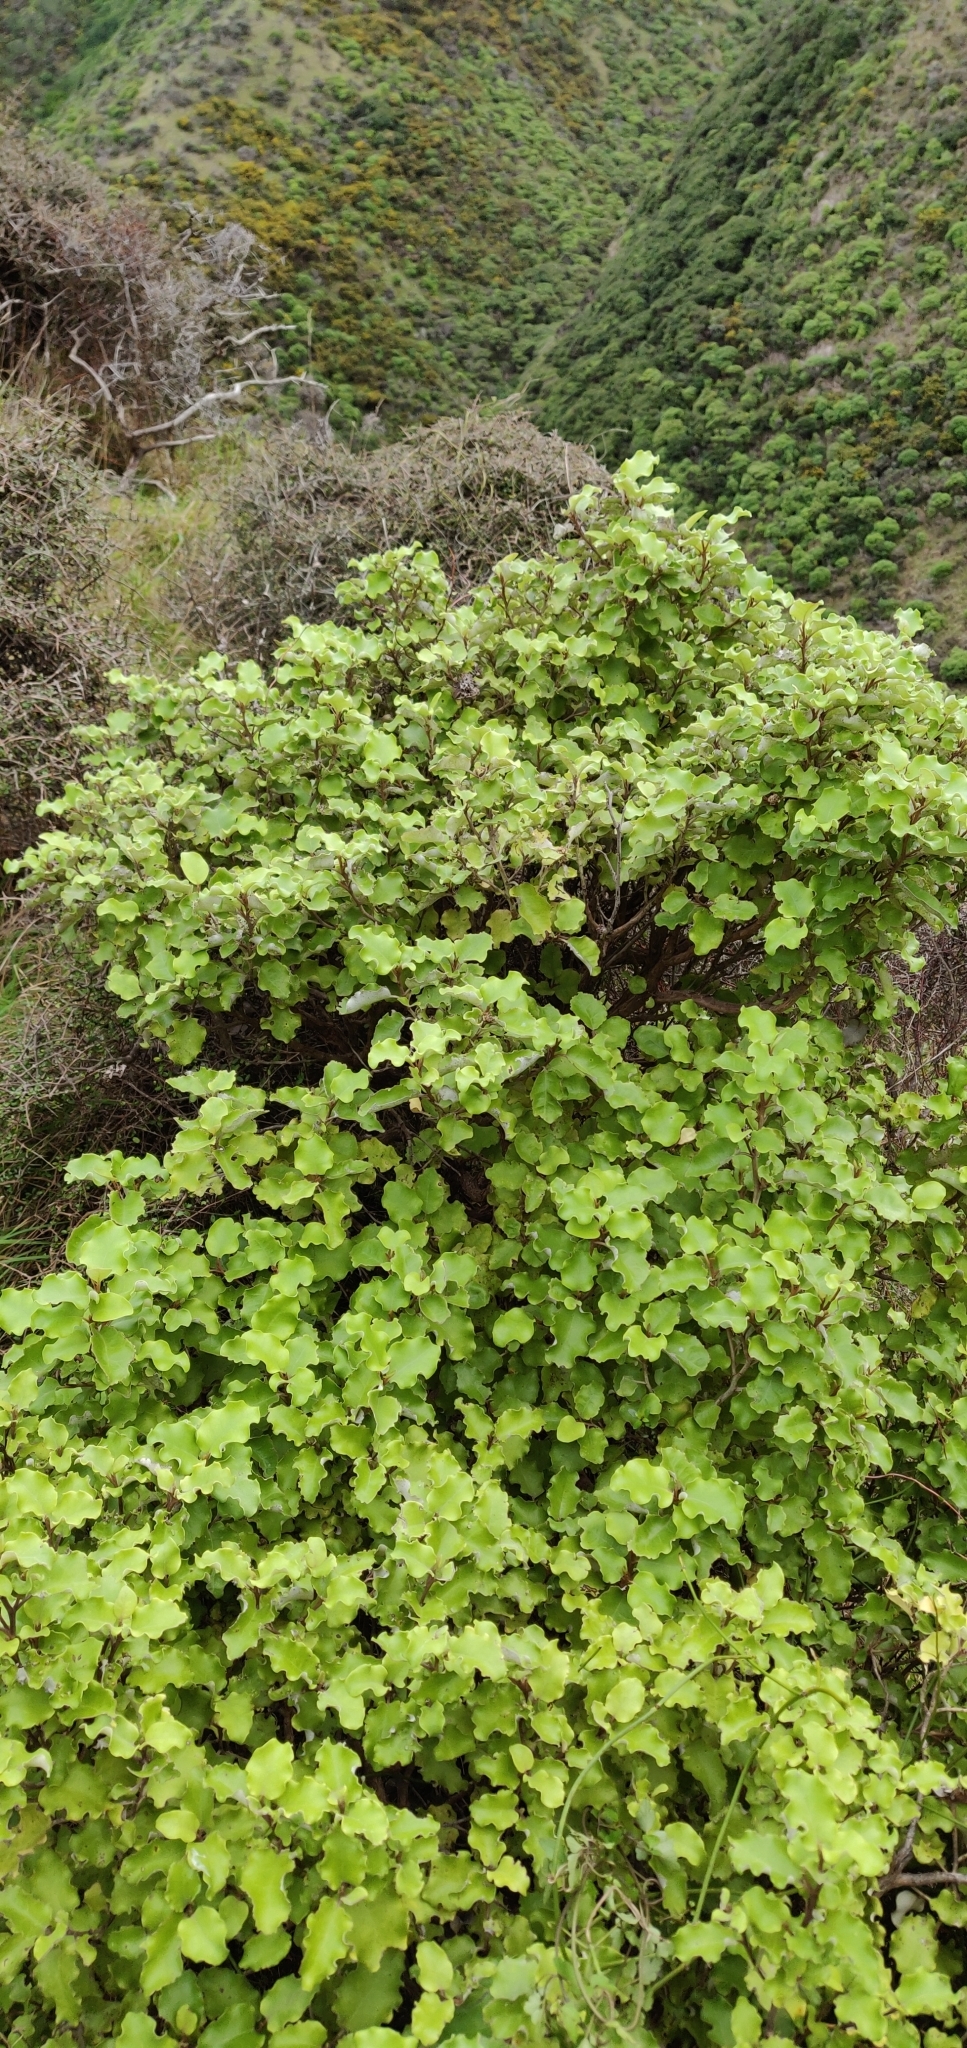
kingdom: Plantae
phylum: Tracheophyta
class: Magnoliopsida
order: Asterales
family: Asteraceae
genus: Olearia
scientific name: Olearia paniculata
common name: Akiraho
